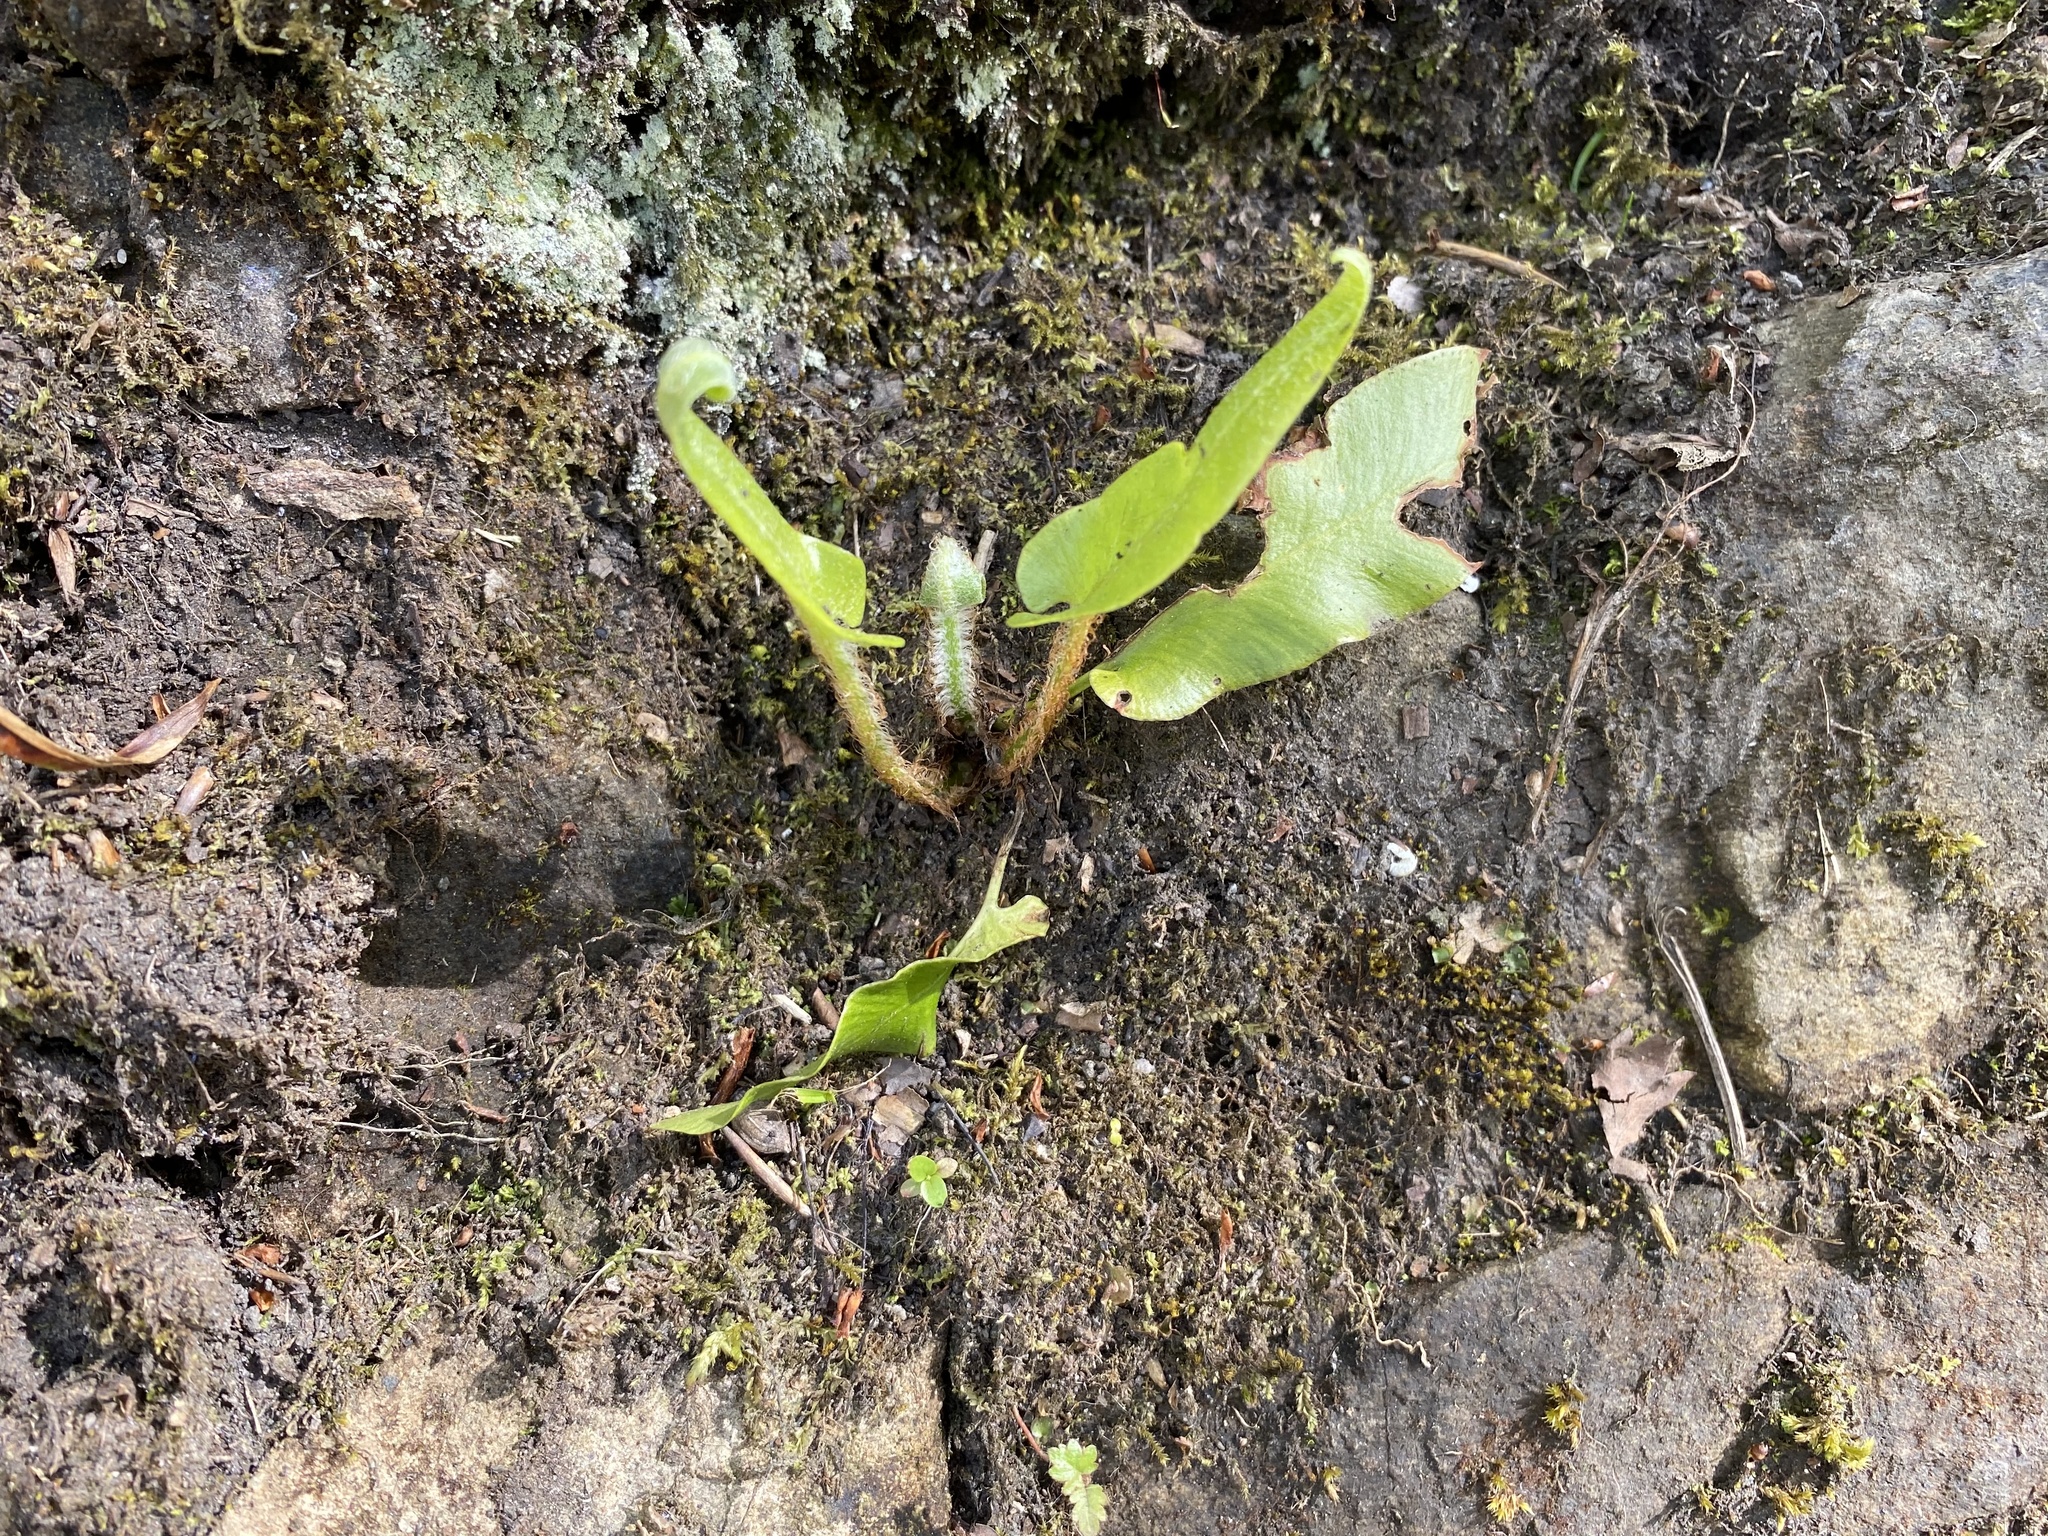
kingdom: Plantae
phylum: Tracheophyta
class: Polypodiopsida
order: Polypodiales
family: Aspleniaceae
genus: Asplenium
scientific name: Asplenium scolopendrium
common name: Hart's-tongue fern
